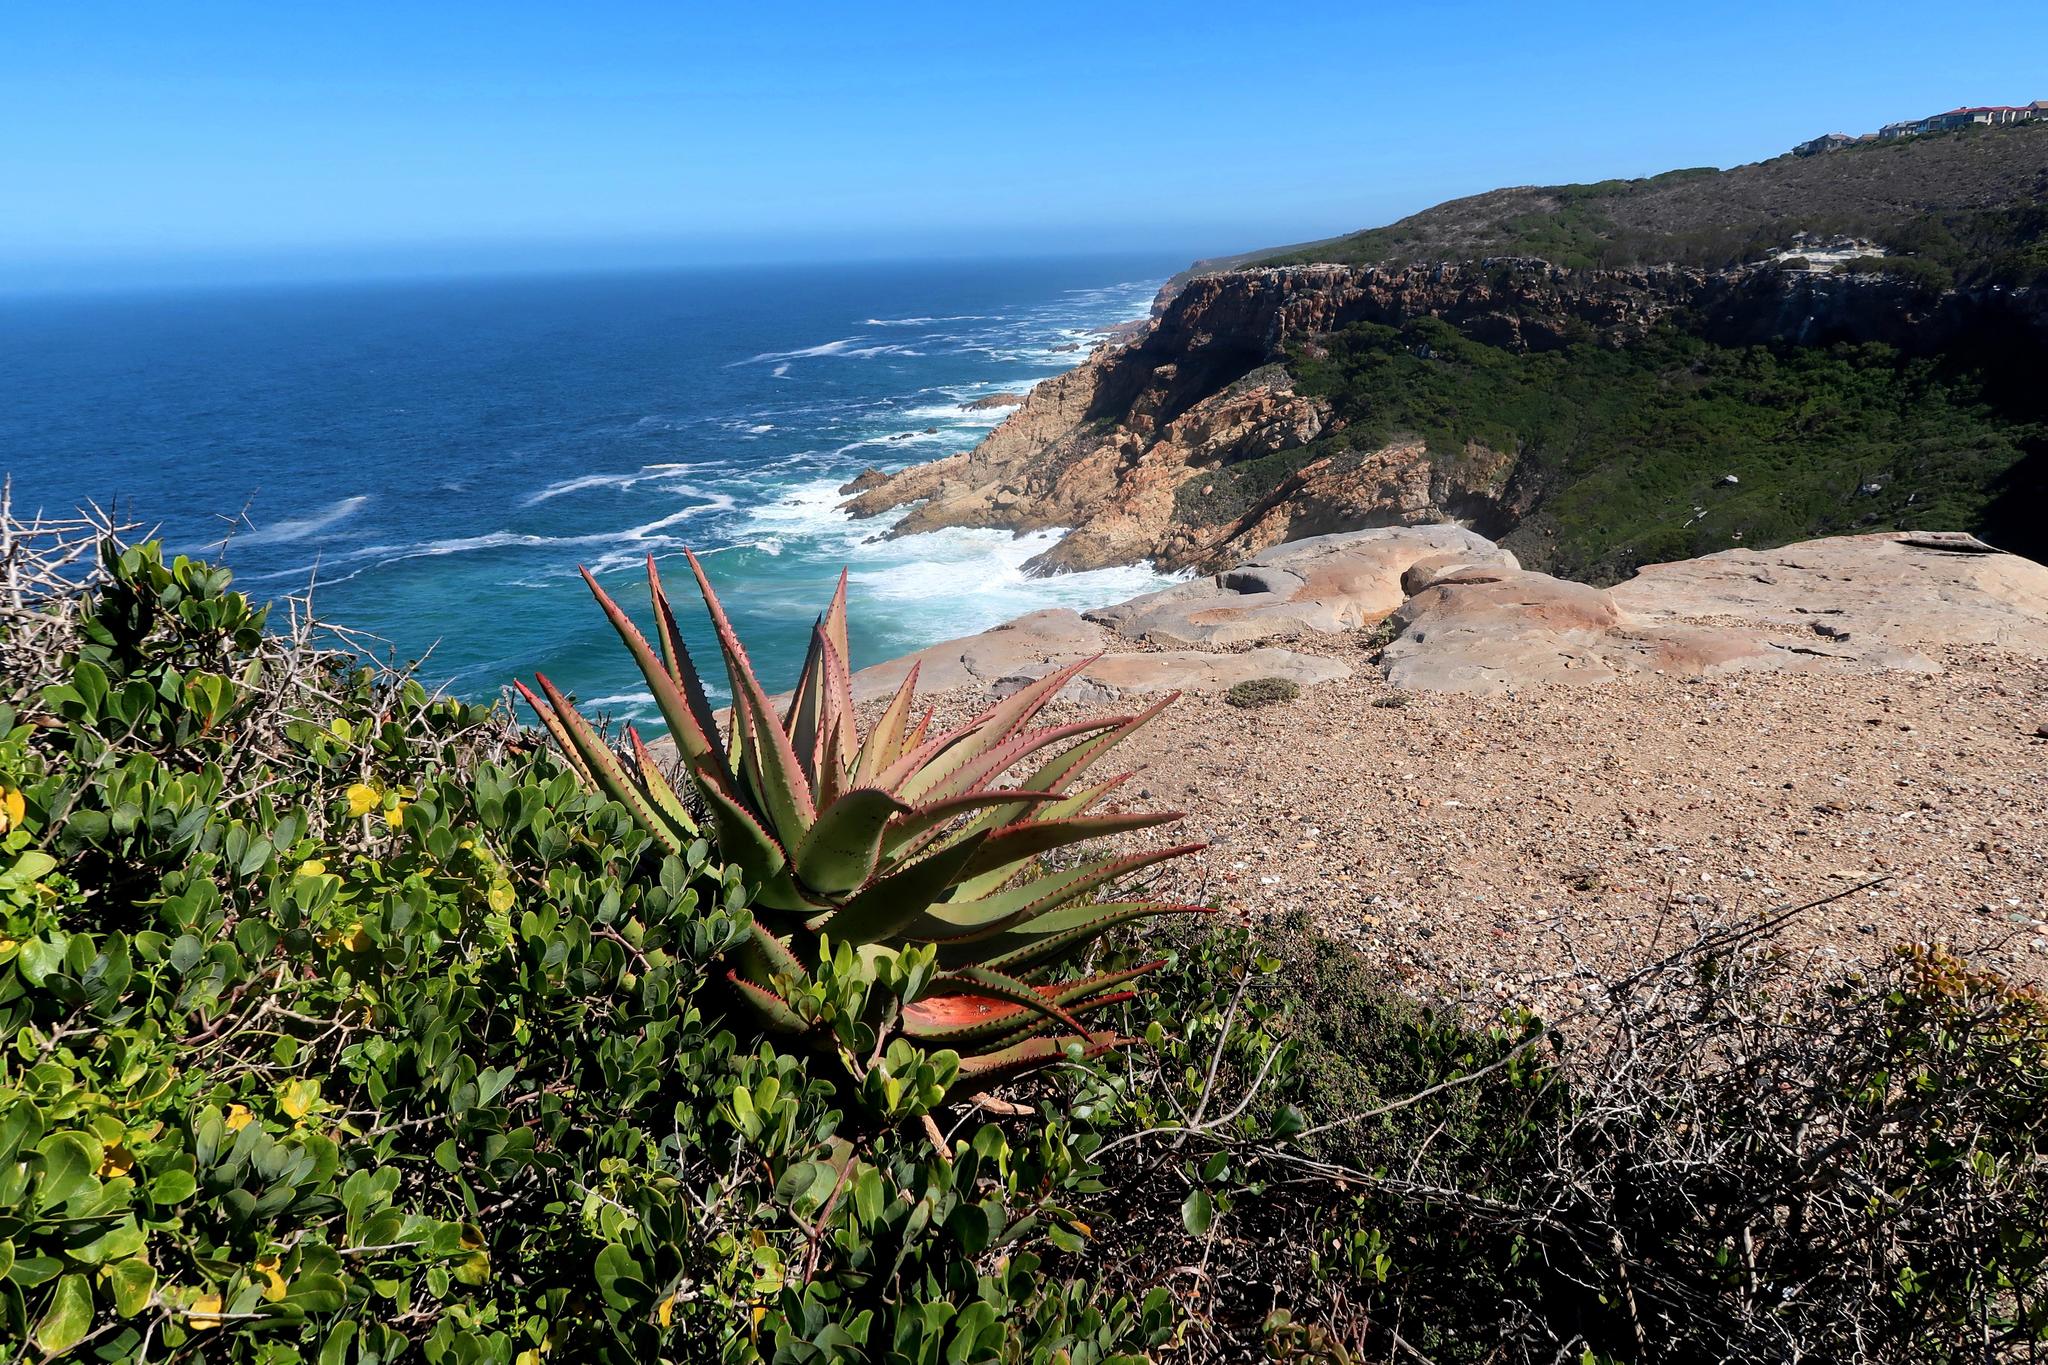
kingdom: Plantae
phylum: Tracheophyta
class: Liliopsida
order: Asparagales
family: Asphodelaceae
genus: Aloe
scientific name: Aloe ferox
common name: Bitter aloe
